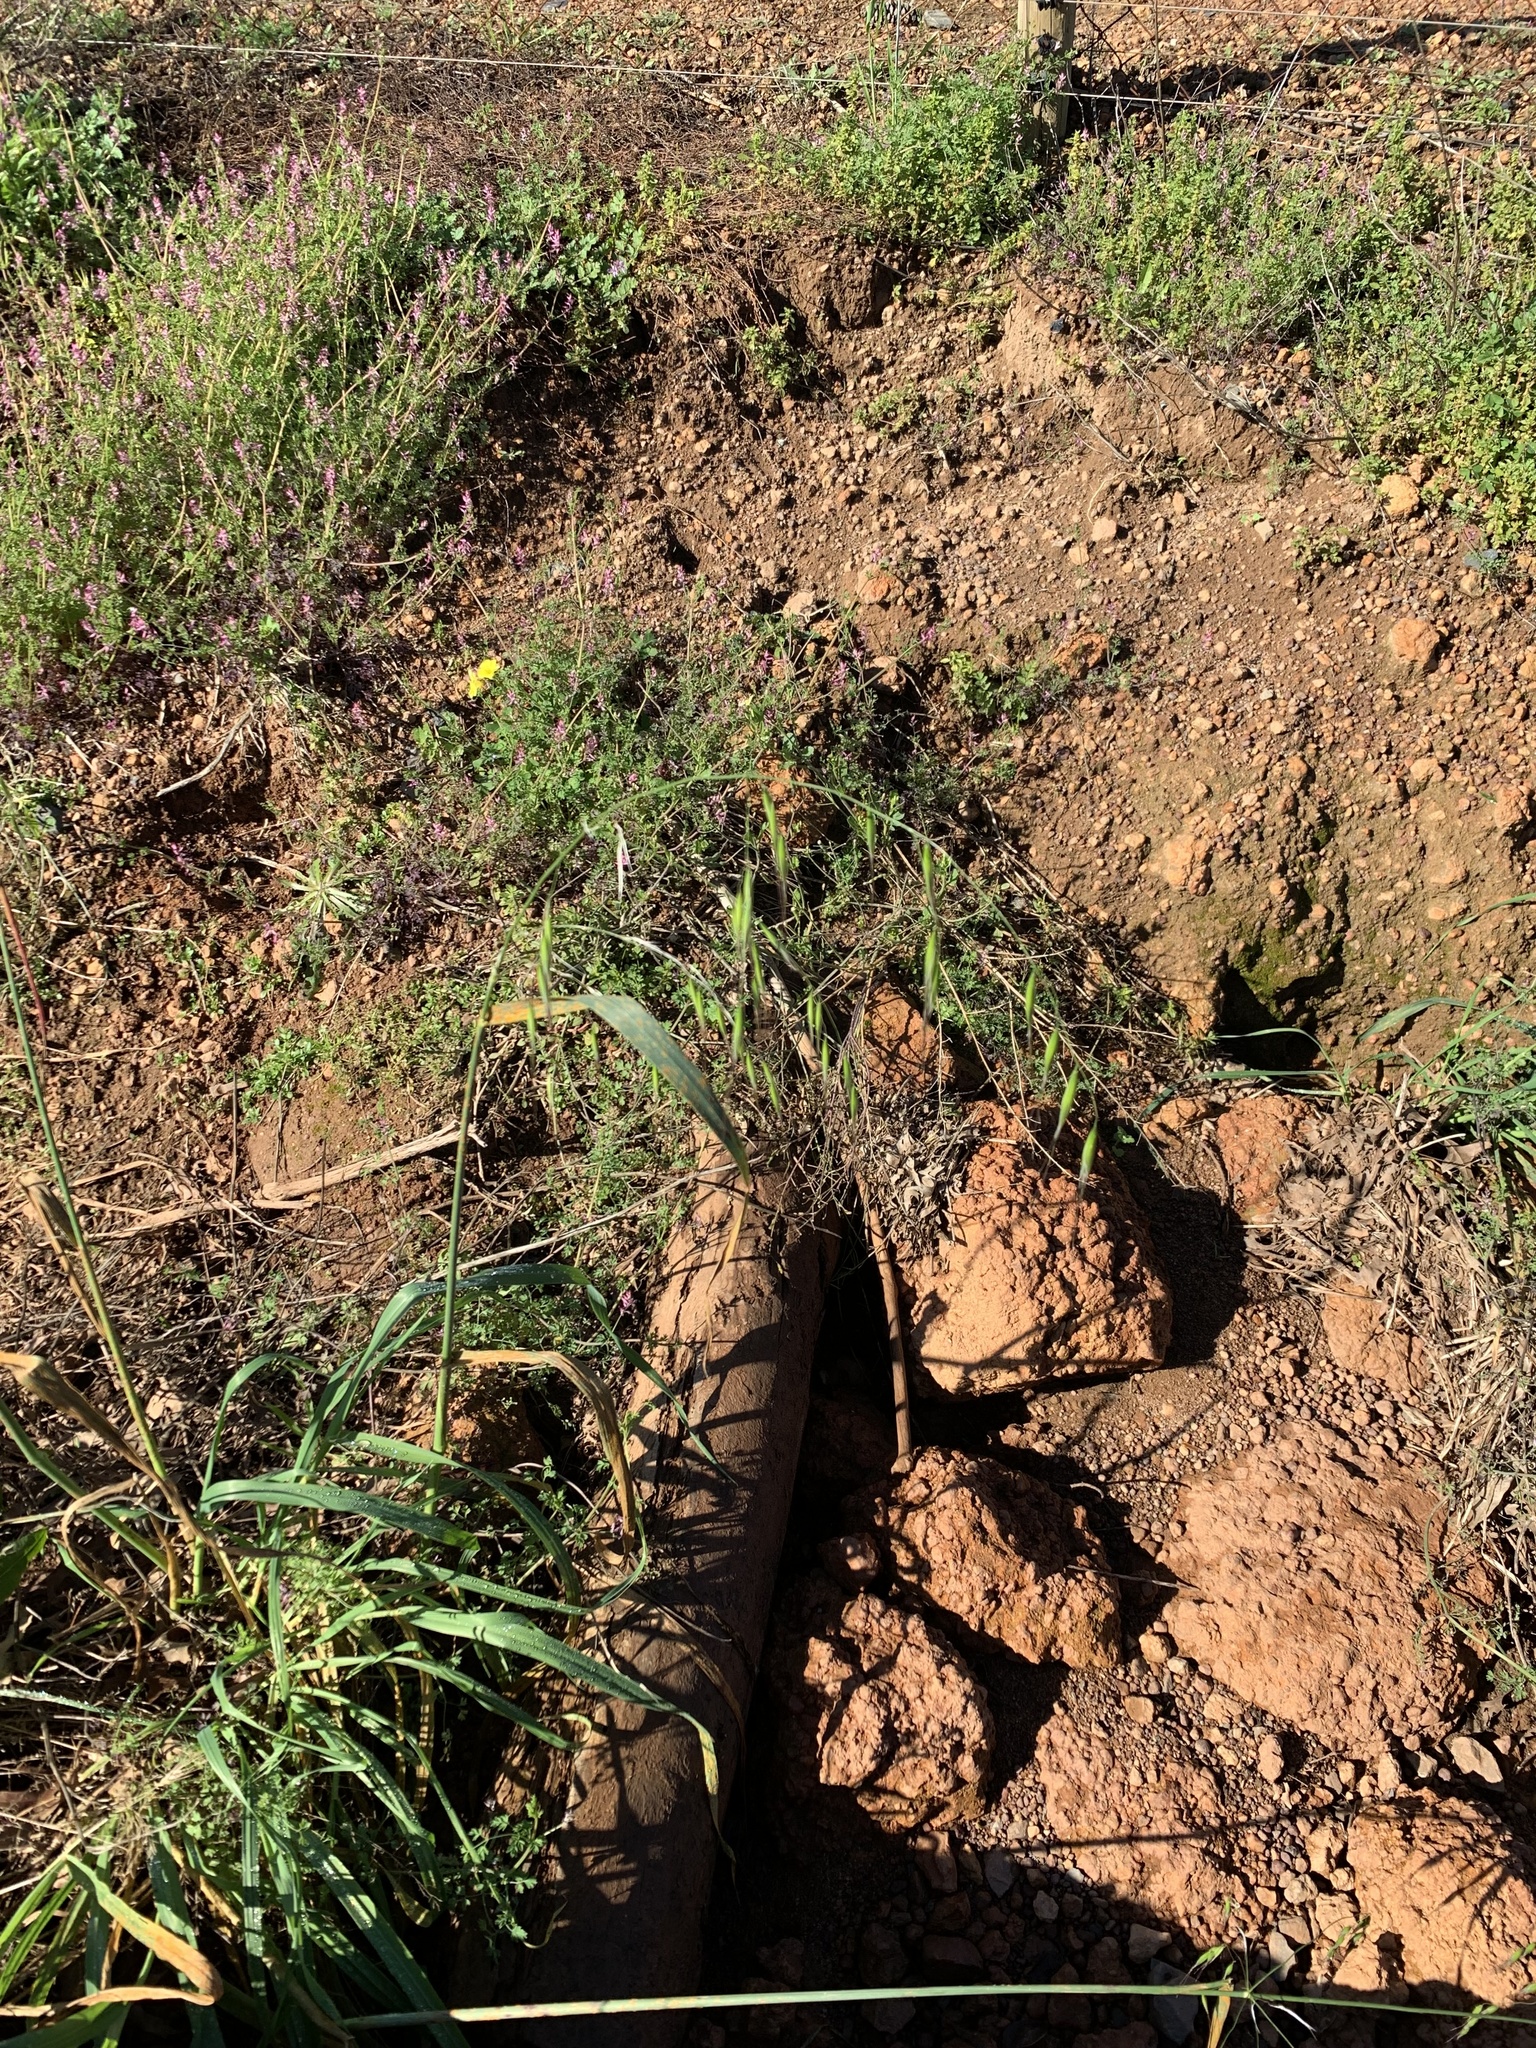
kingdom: Plantae
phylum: Tracheophyta
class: Liliopsida
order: Poales
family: Poaceae
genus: Avena
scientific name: Avena fatua
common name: Wild oat
